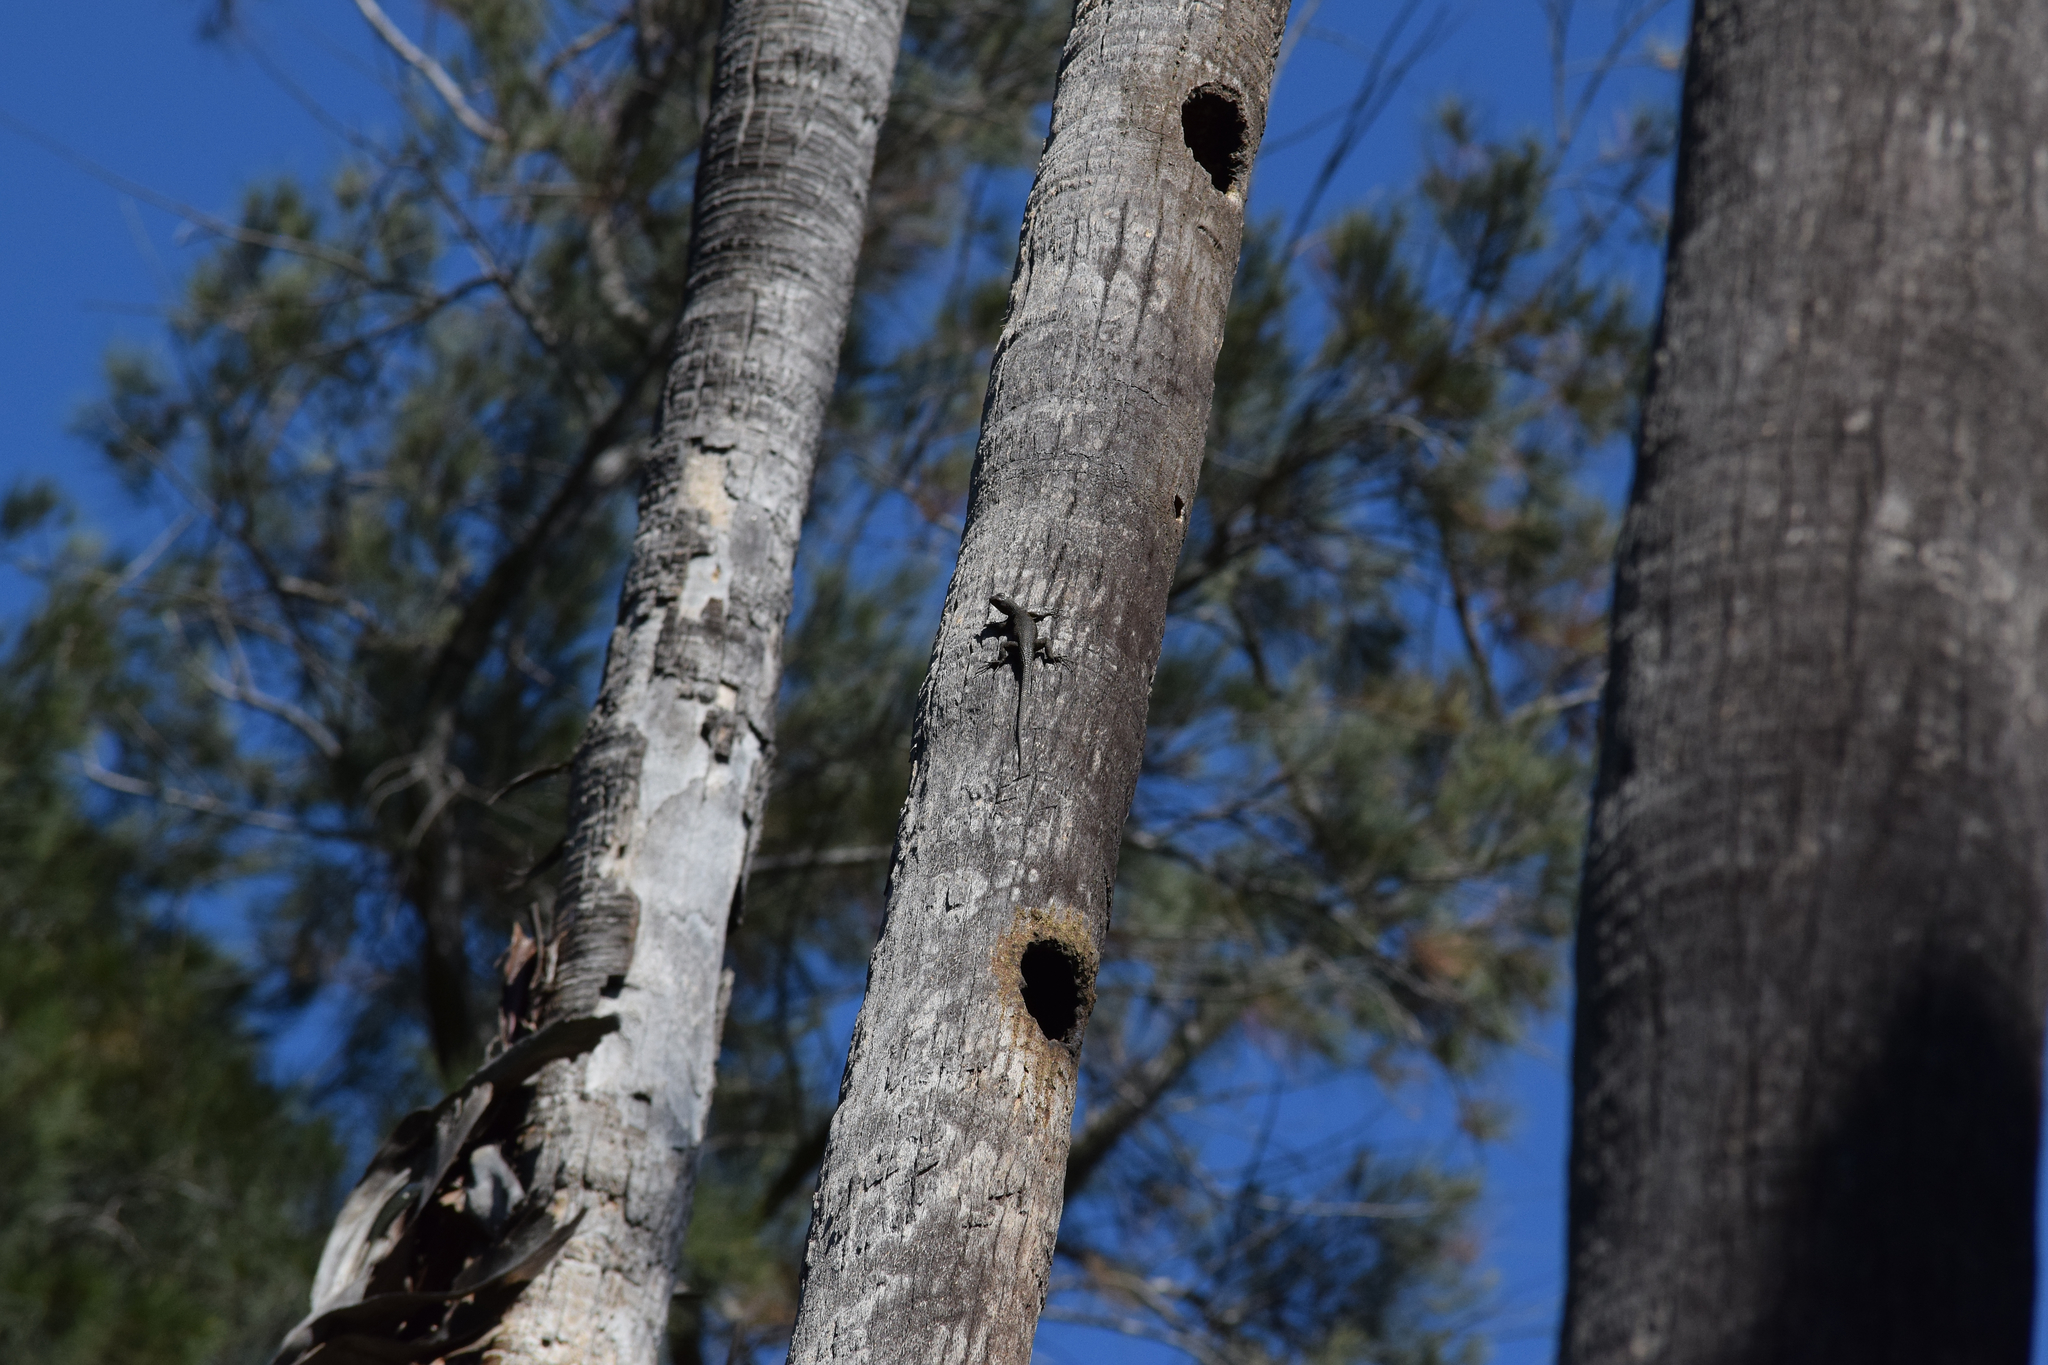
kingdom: Animalia
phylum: Chordata
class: Squamata
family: Phrynosomatidae
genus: Sceloporus
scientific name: Sceloporus occidentalis
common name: Western fence lizard
